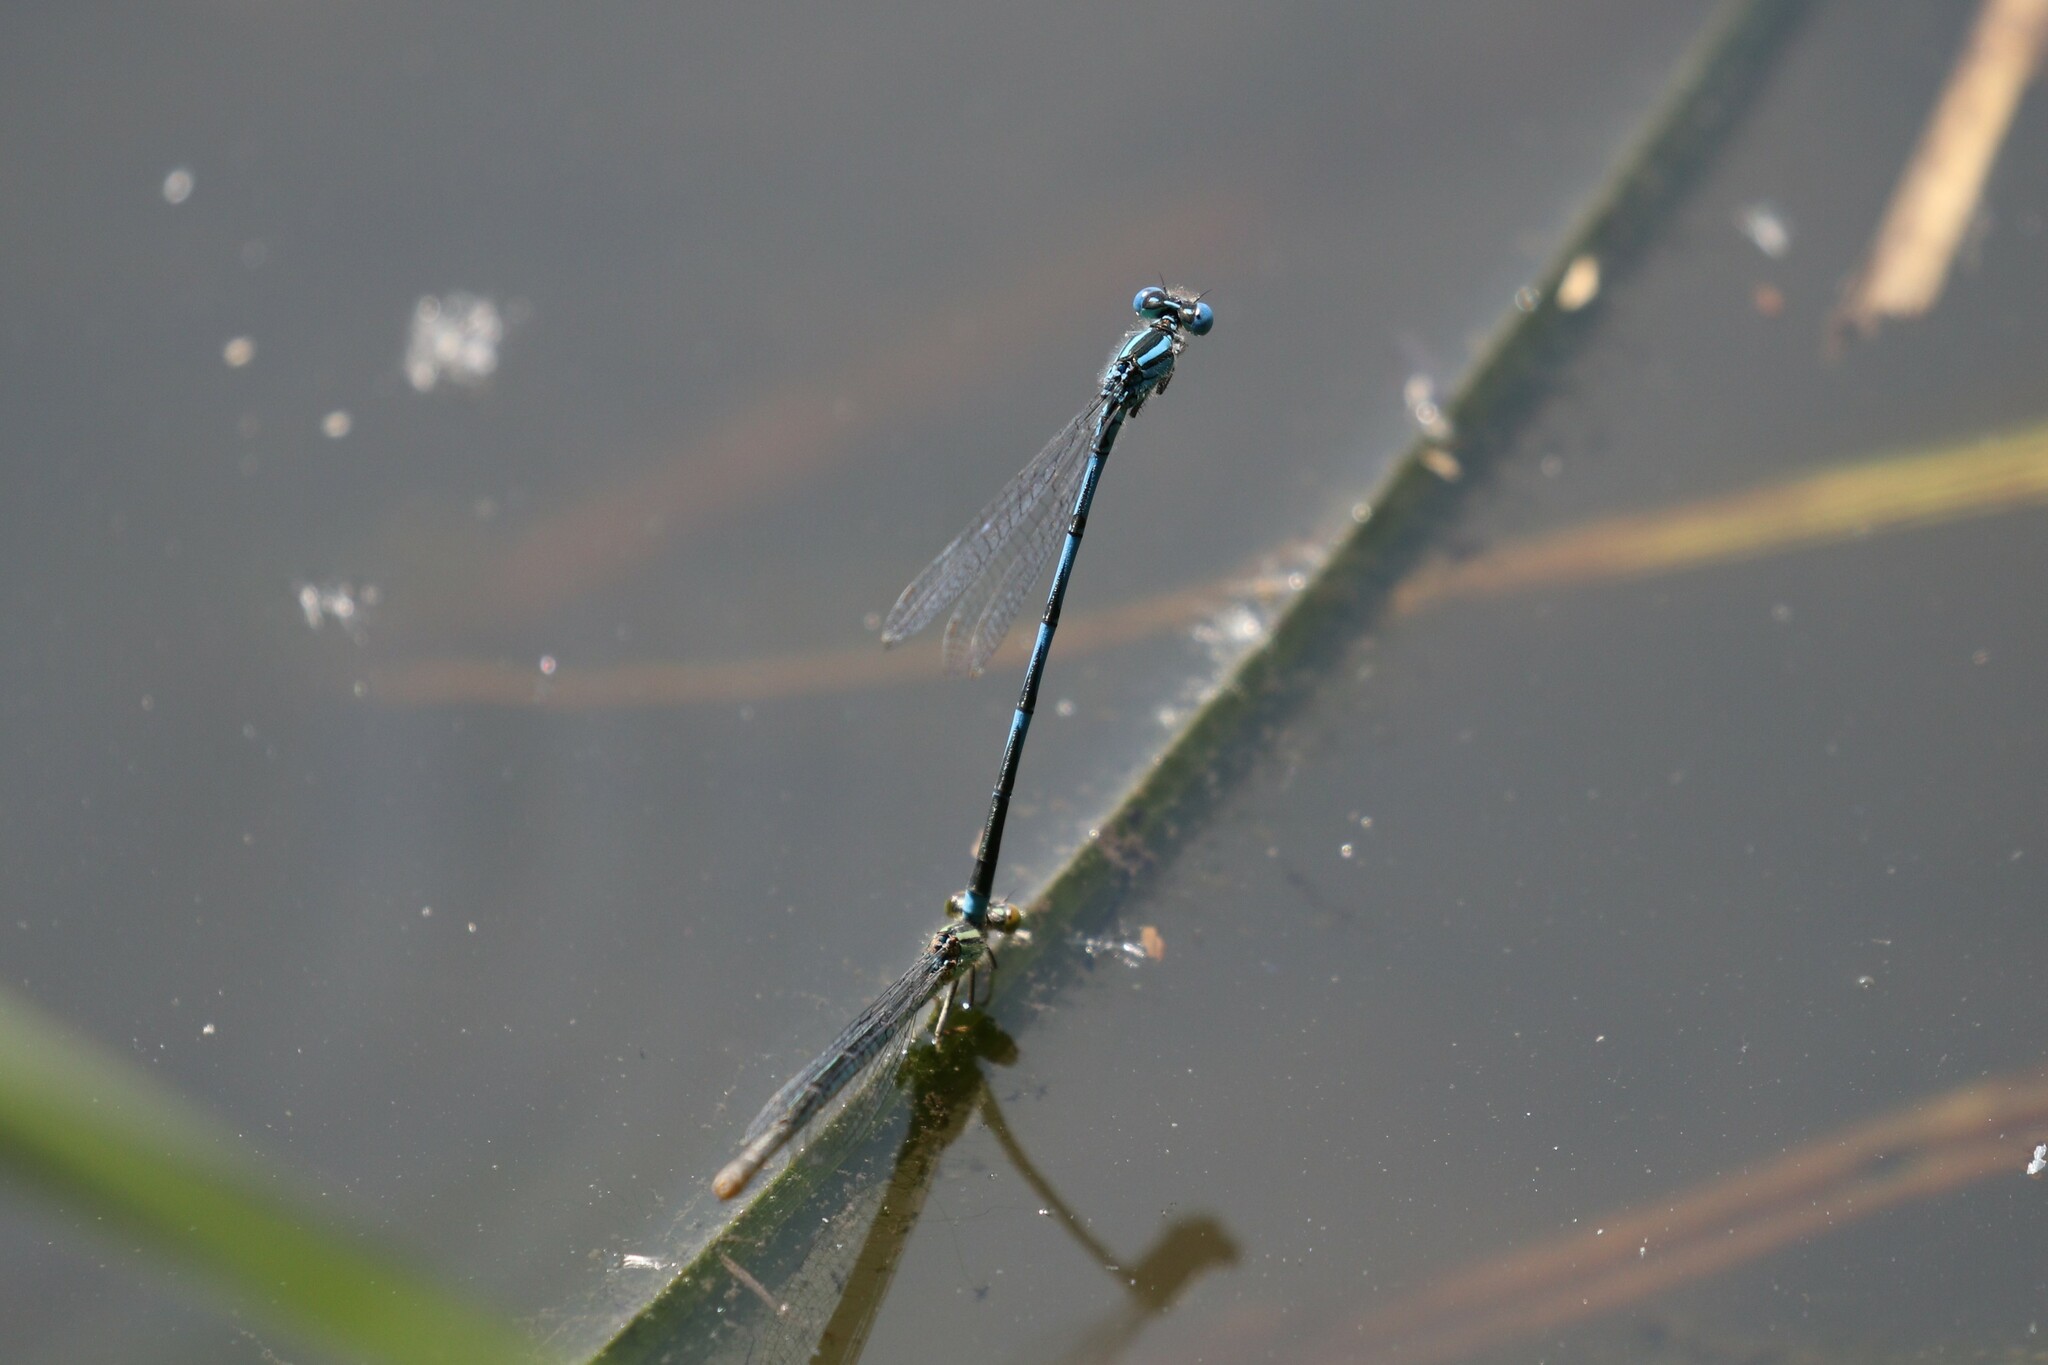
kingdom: Animalia
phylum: Arthropoda
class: Insecta
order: Odonata
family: Coenagrionidae
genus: Erythromma
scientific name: Erythromma lindenii
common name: Blue-eye
